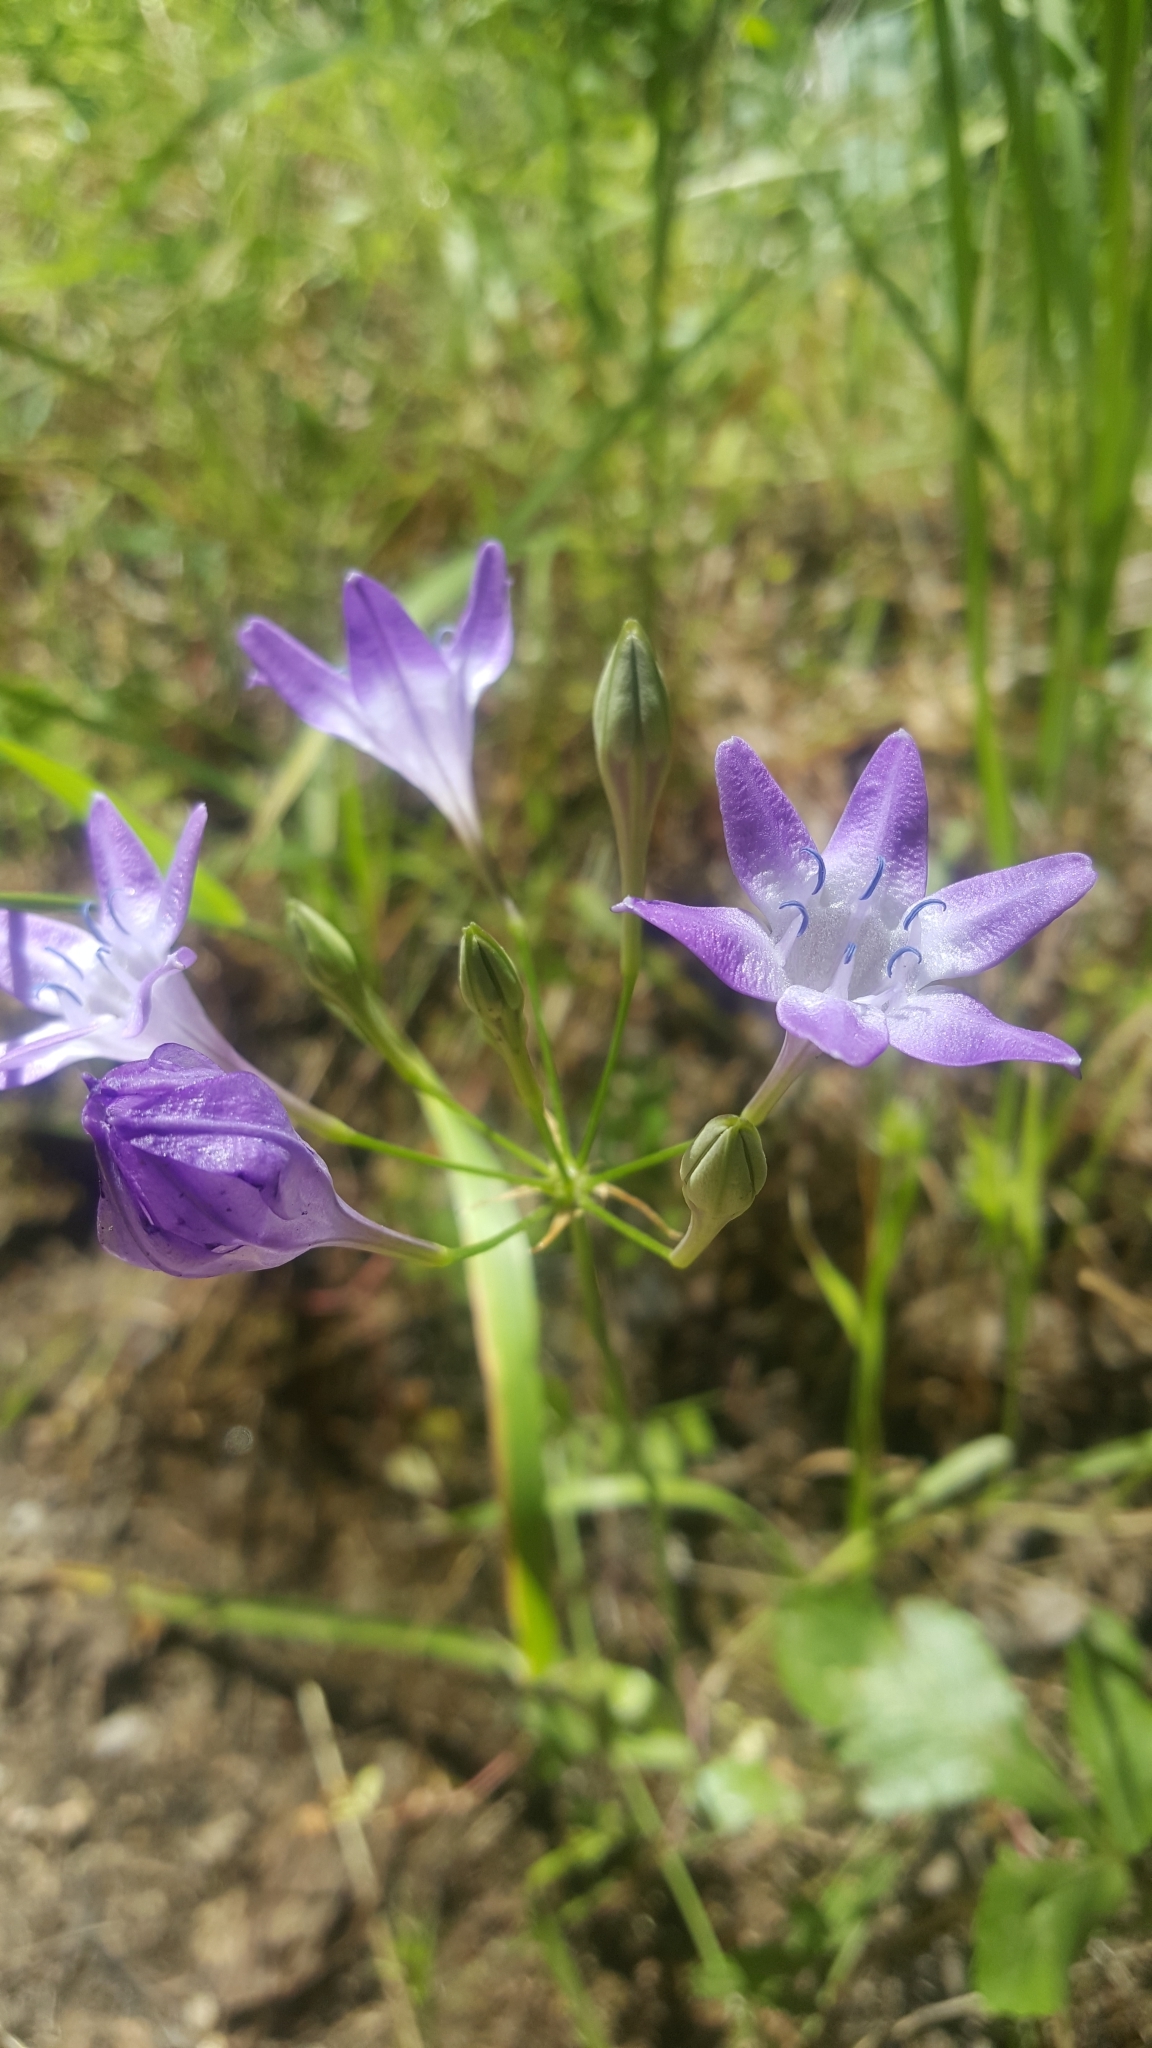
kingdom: Plantae
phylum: Tracheophyta
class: Liliopsida
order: Asparagales
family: Asparagaceae
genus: Triteleia
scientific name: Triteleia bridgesii
